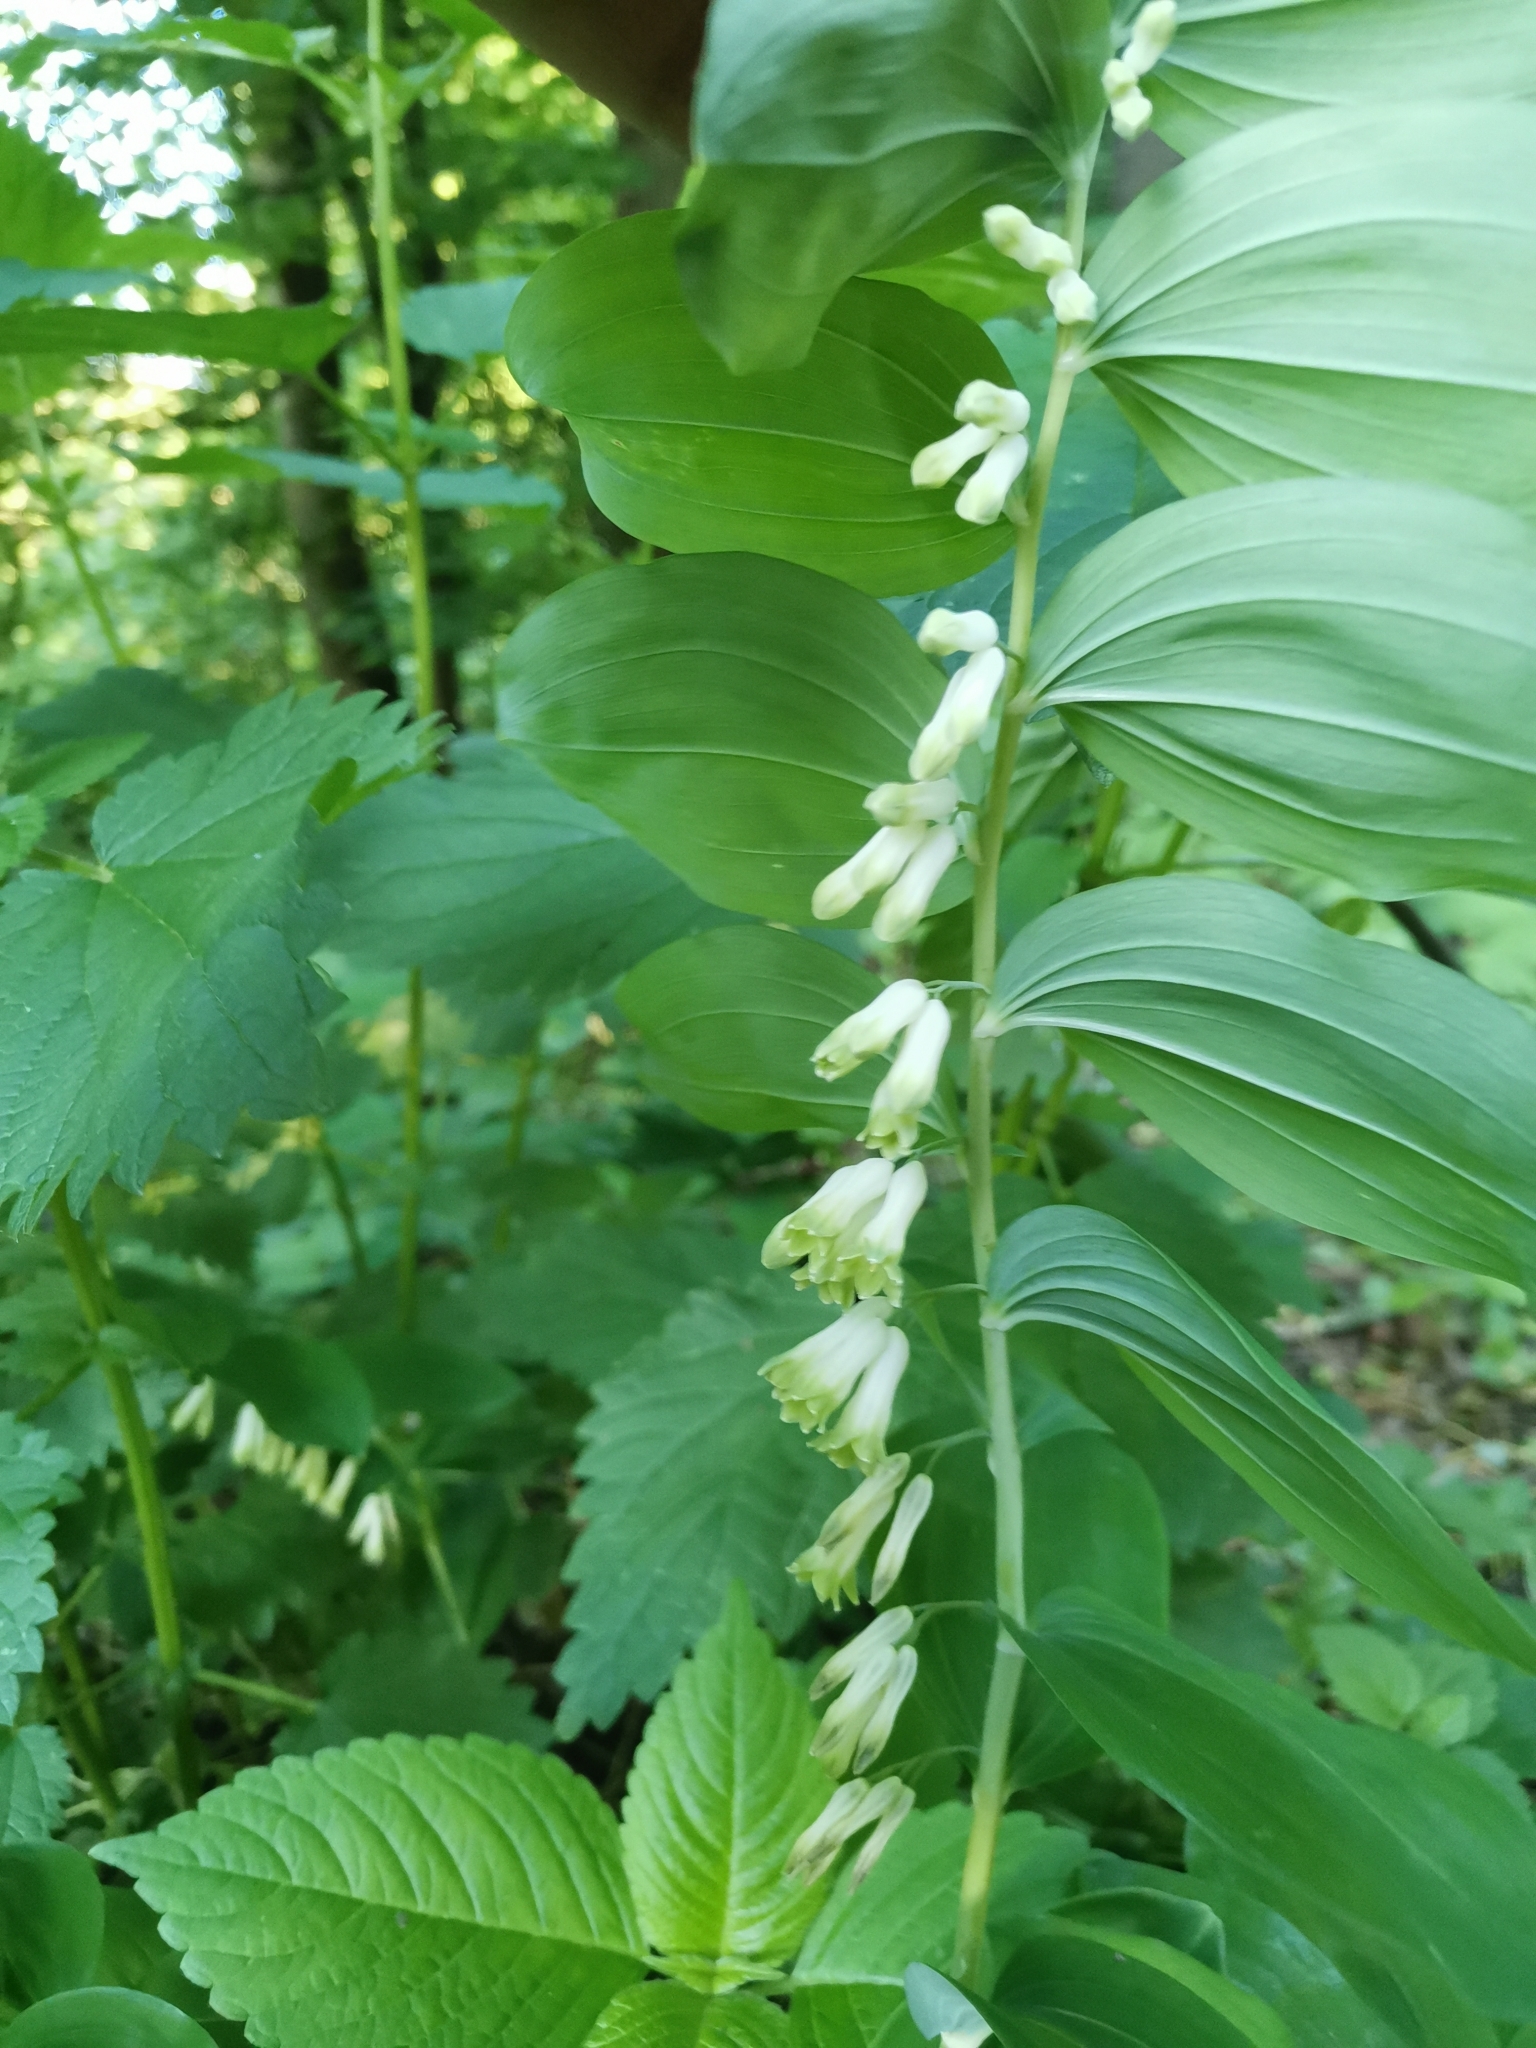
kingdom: Plantae
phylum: Tracheophyta
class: Liliopsida
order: Asparagales
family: Asparagaceae
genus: Polygonatum
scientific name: Polygonatum multiflorum
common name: Solomon's-seal
